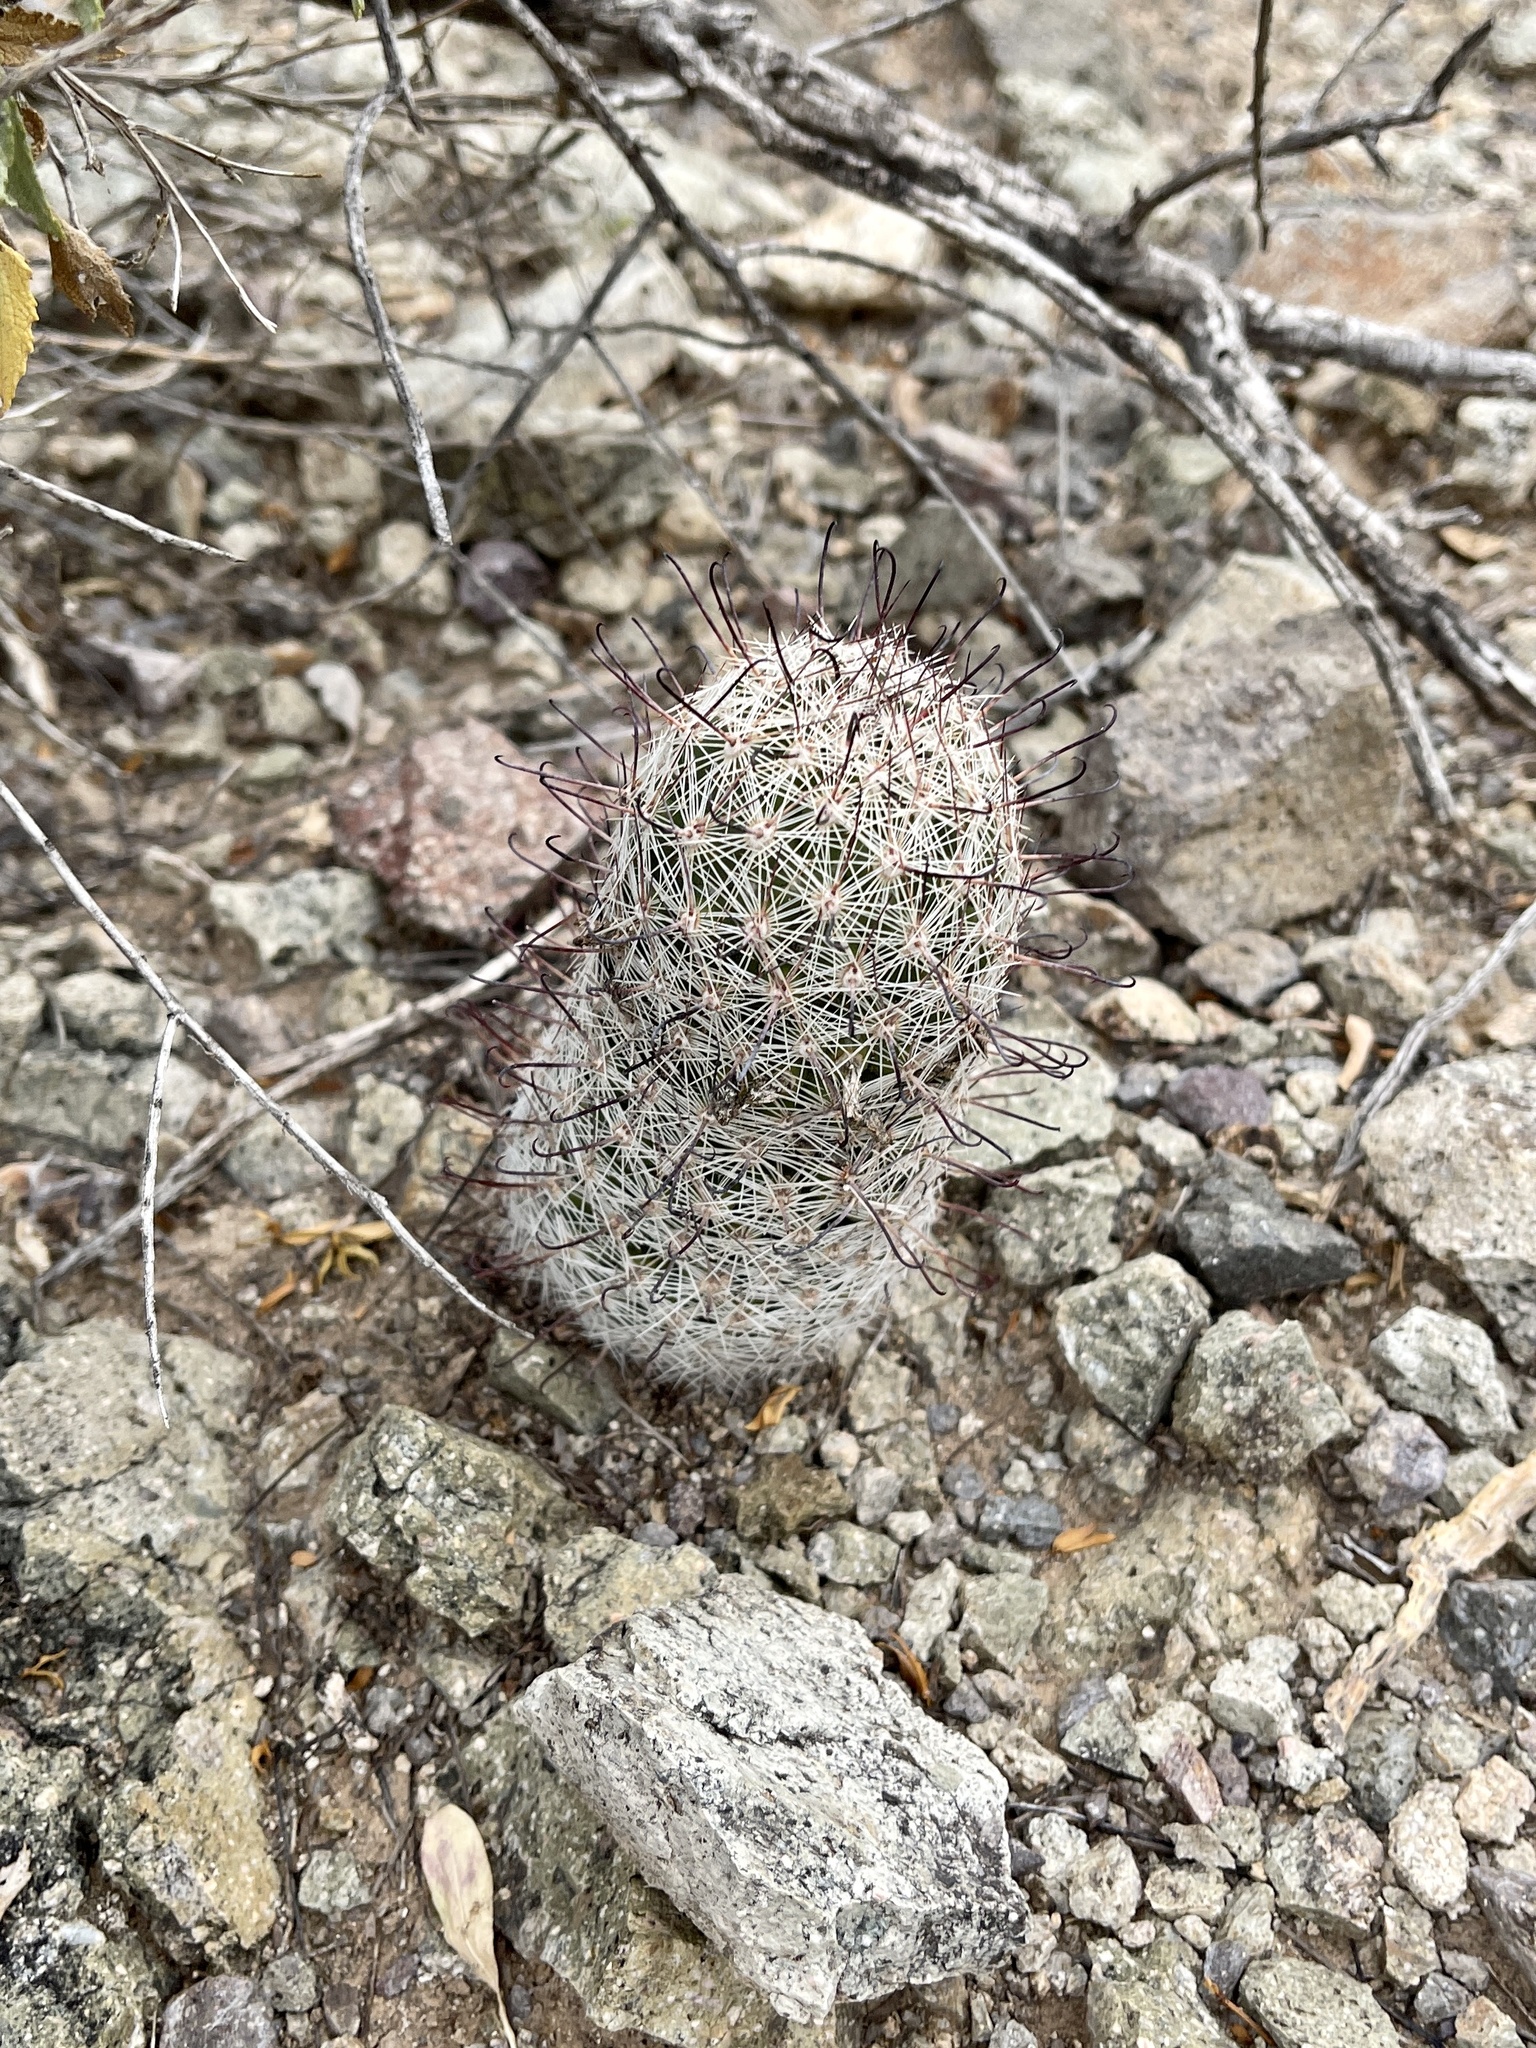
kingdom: Plantae
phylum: Tracheophyta
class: Magnoliopsida
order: Caryophyllales
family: Cactaceae
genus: Cochemiea
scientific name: Cochemiea grahamii
